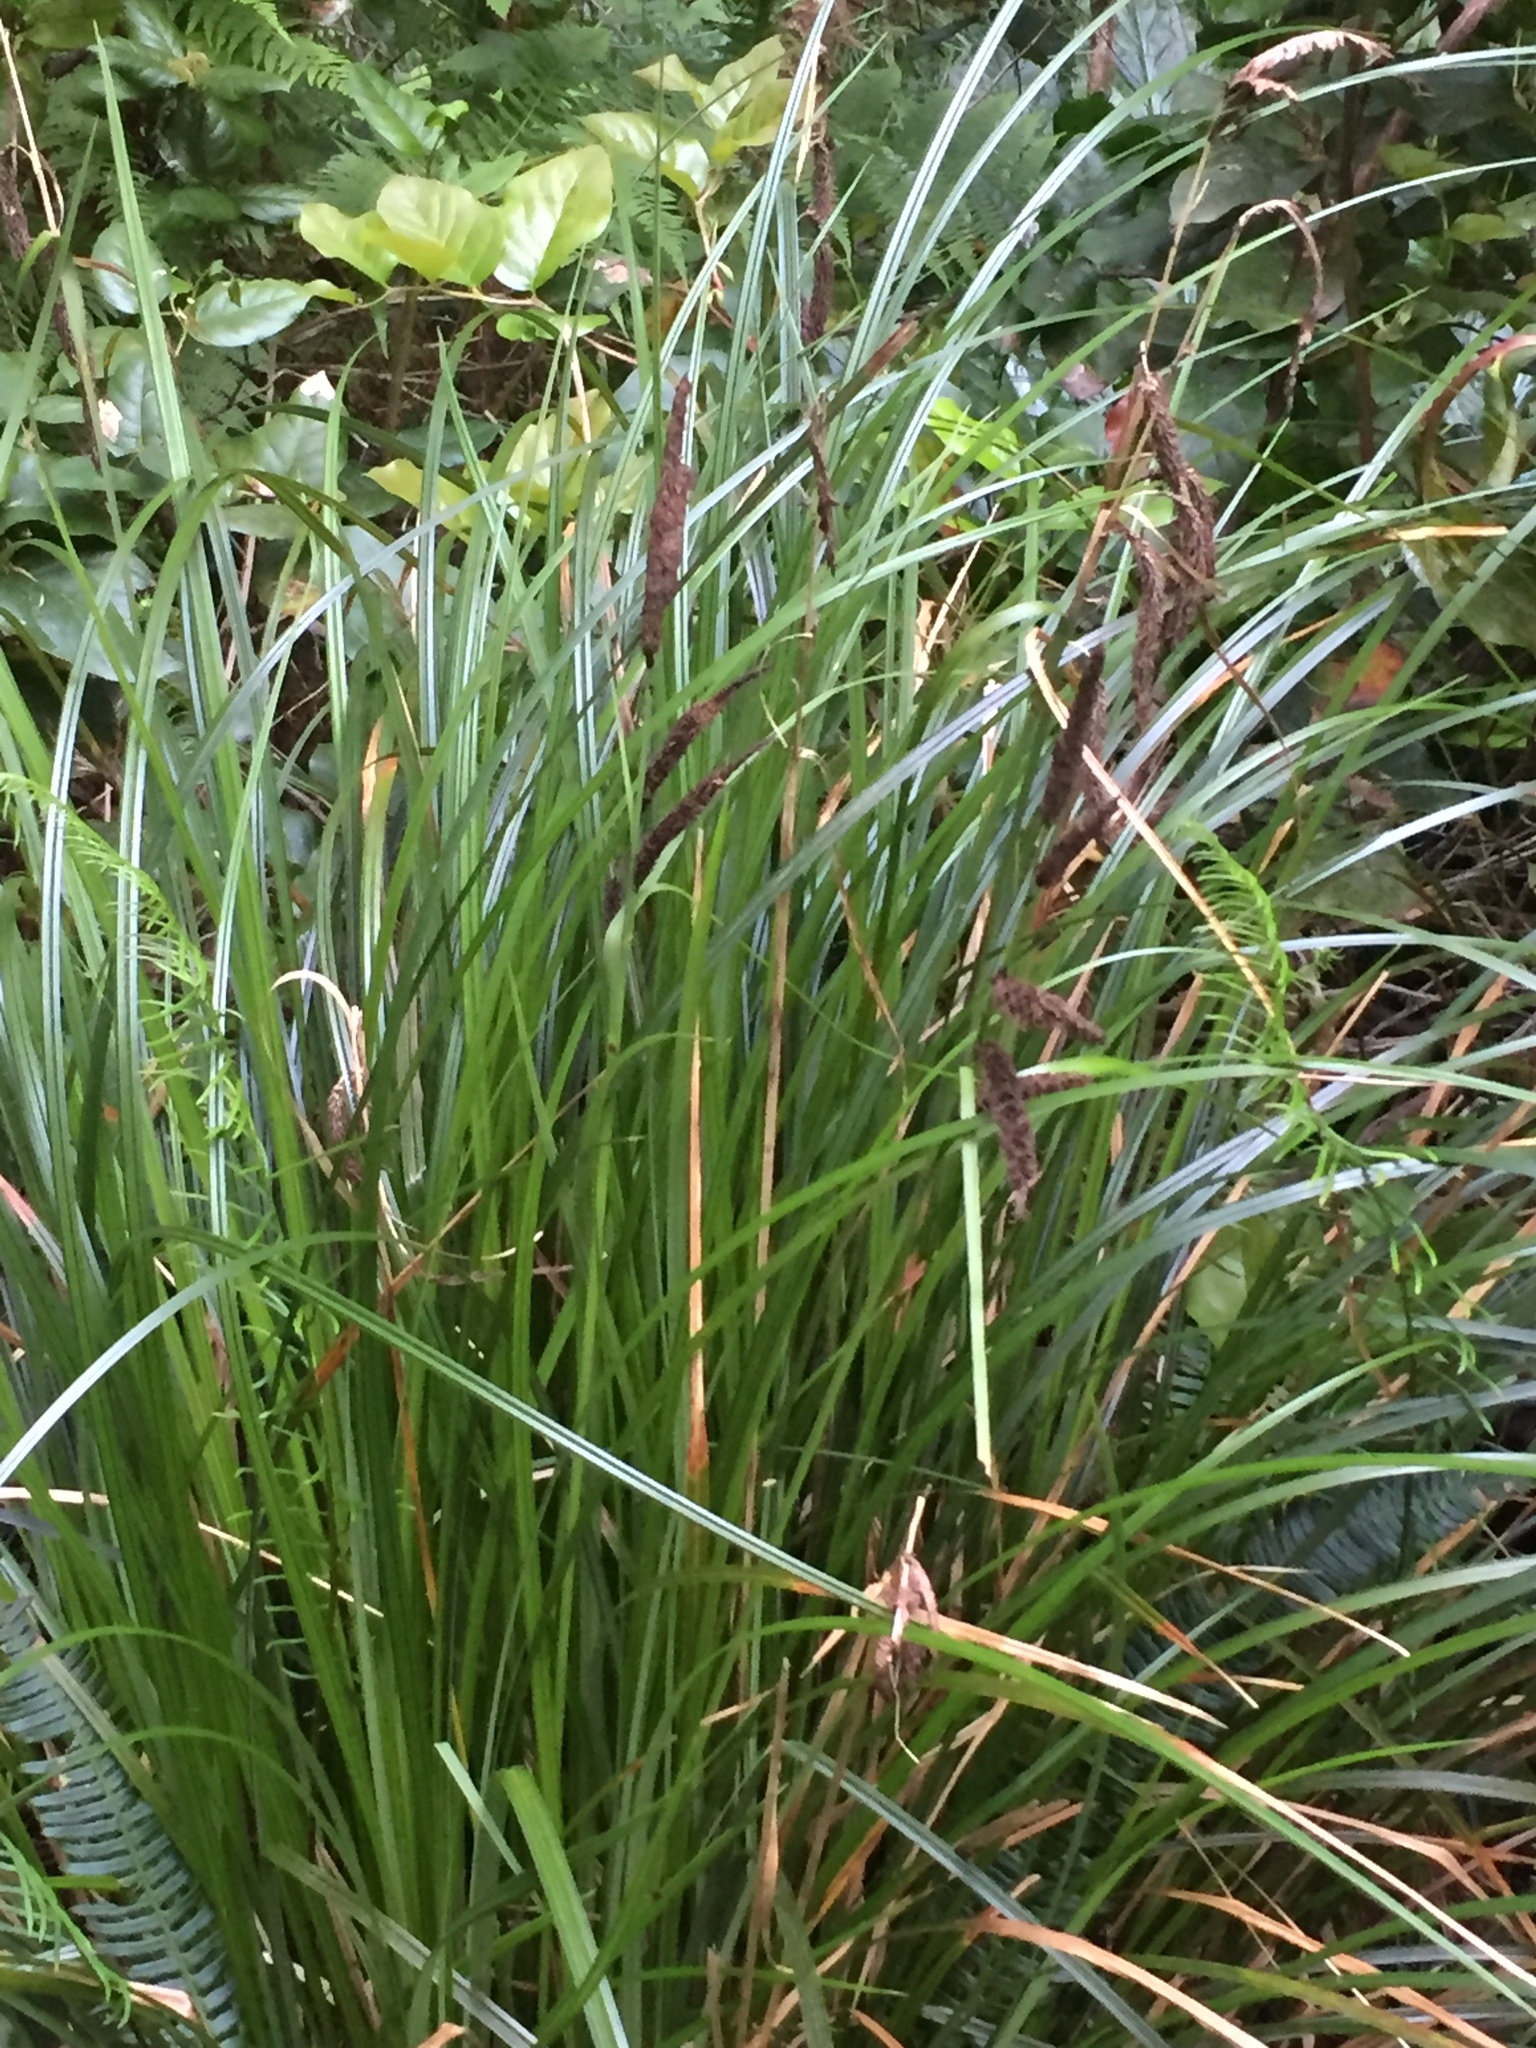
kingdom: Plantae
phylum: Tracheophyta
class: Liliopsida
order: Poales
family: Cyperaceae
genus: Carex
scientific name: Carex obnupta
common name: Slough sedge
